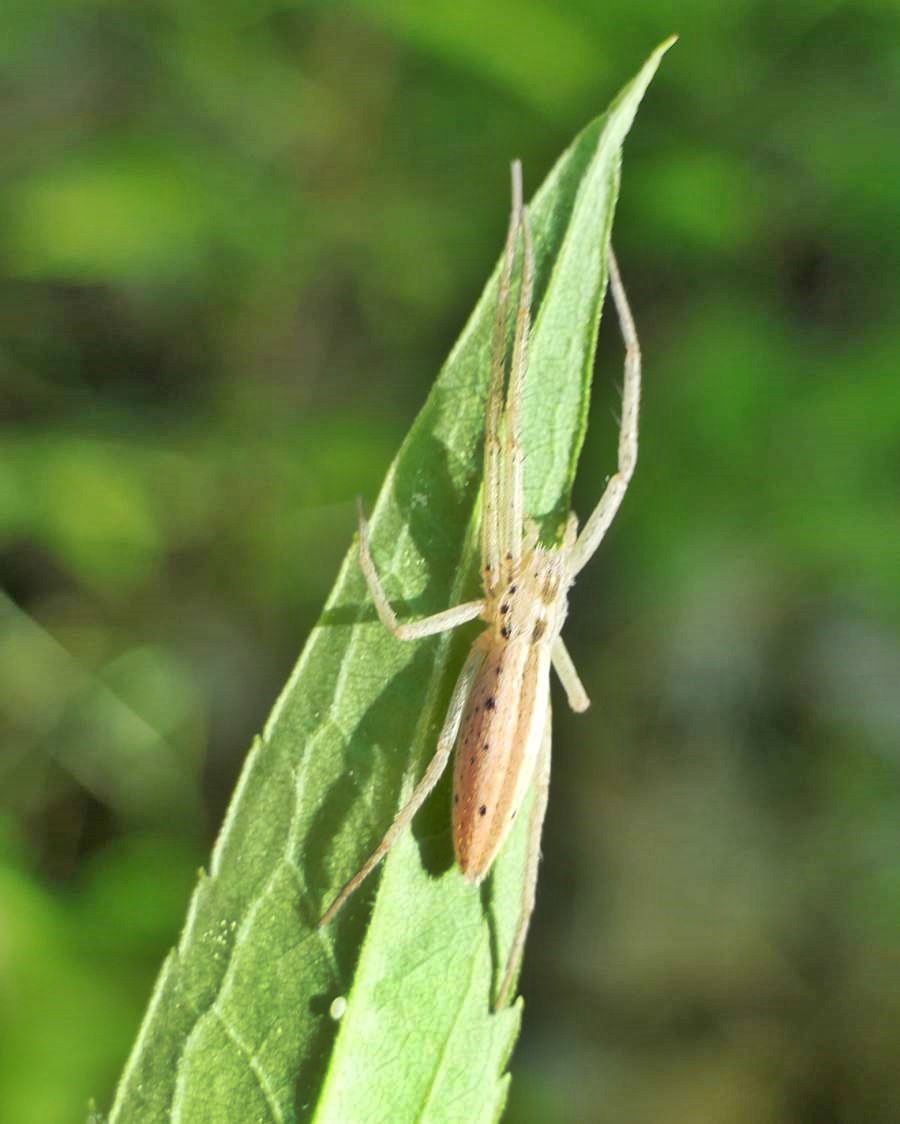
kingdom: Animalia
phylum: Arthropoda
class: Arachnida
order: Araneae
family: Philodromidae
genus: Tibellus
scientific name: Tibellus oblongus
